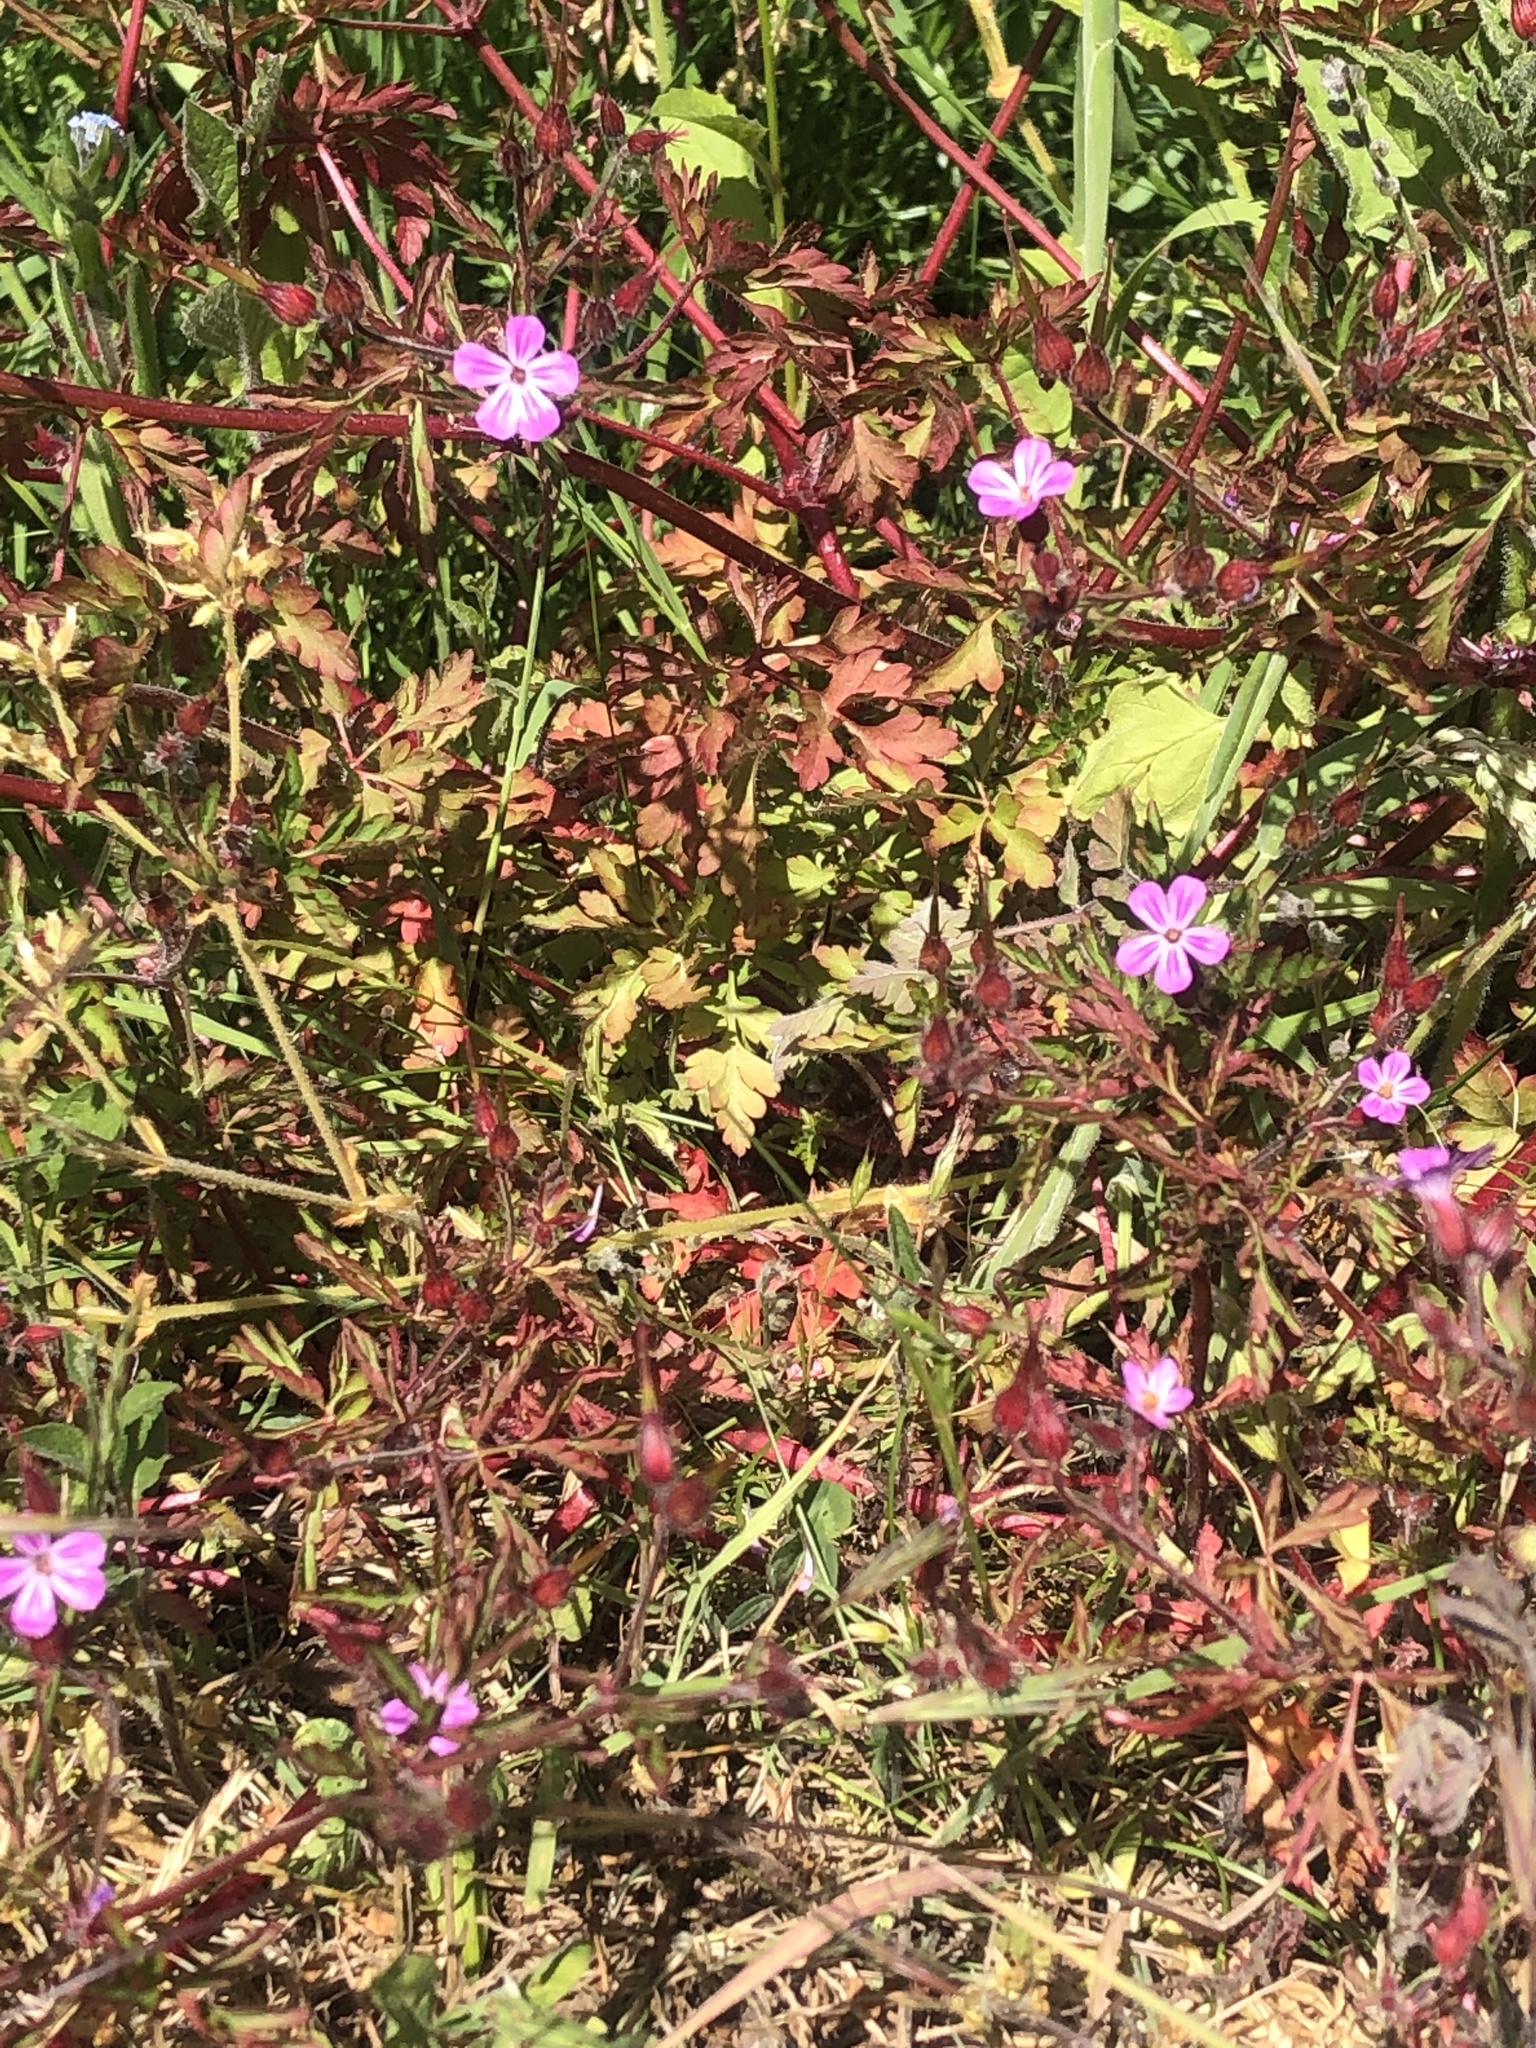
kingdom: Plantae
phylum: Tracheophyta
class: Magnoliopsida
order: Geraniales
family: Geraniaceae
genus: Geranium
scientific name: Geranium robertianum
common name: Herb-robert
